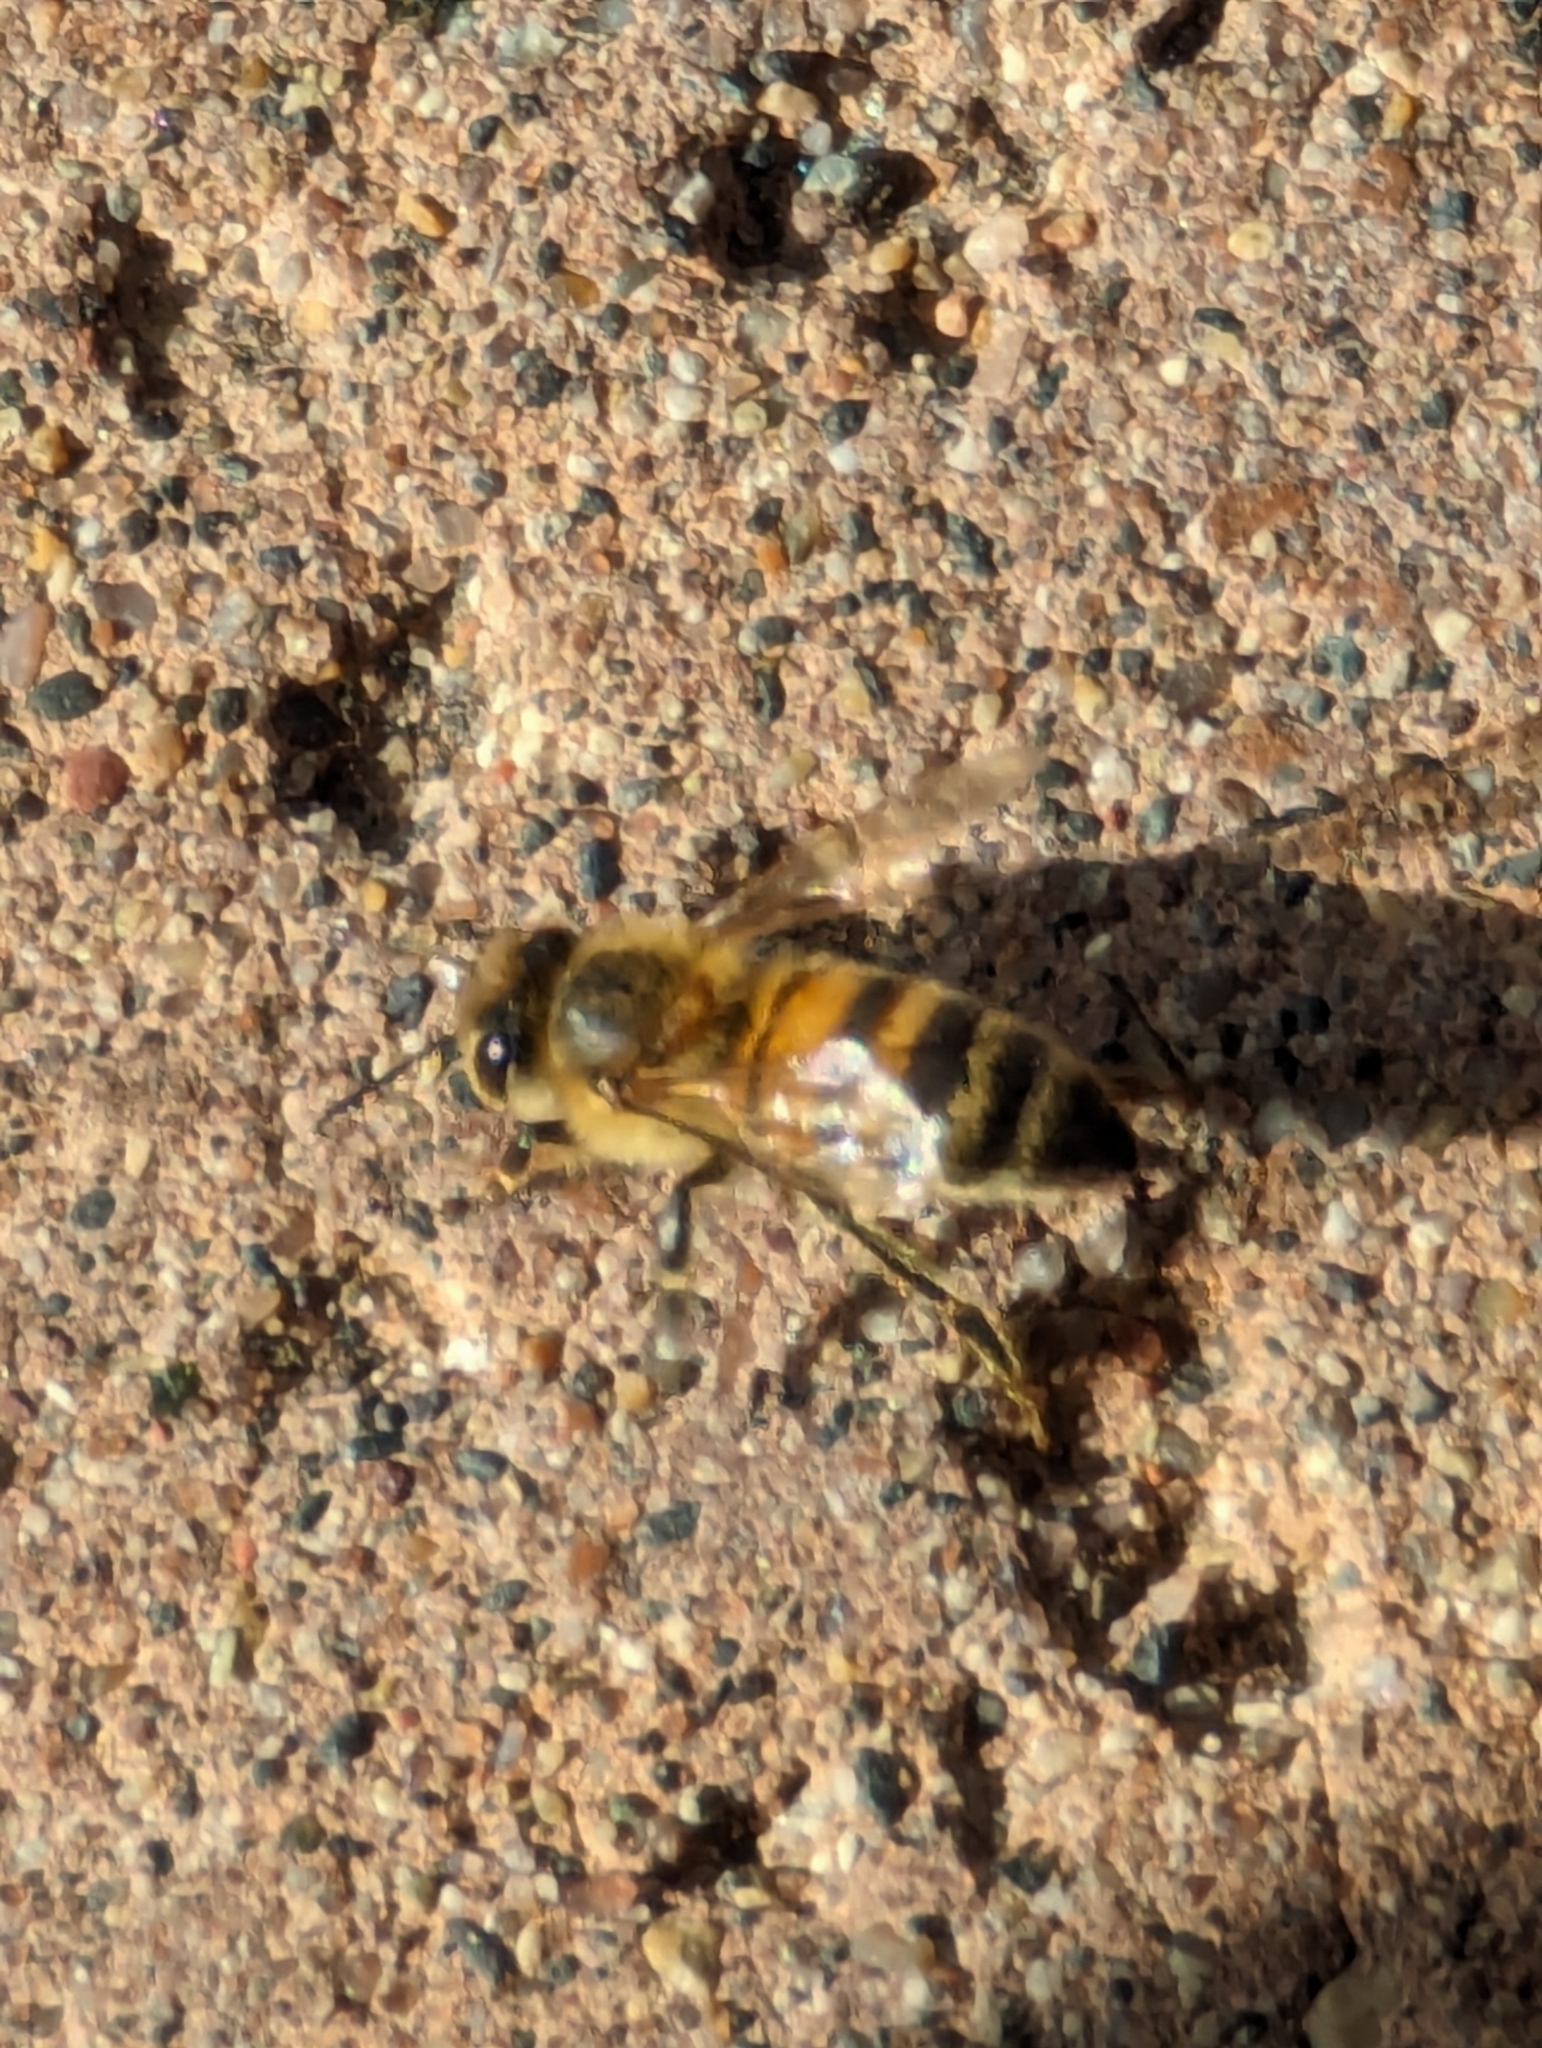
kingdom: Animalia
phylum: Arthropoda
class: Insecta
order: Hymenoptera
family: Apidae
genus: Apis
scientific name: Apis mellifera
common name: Honey bee
